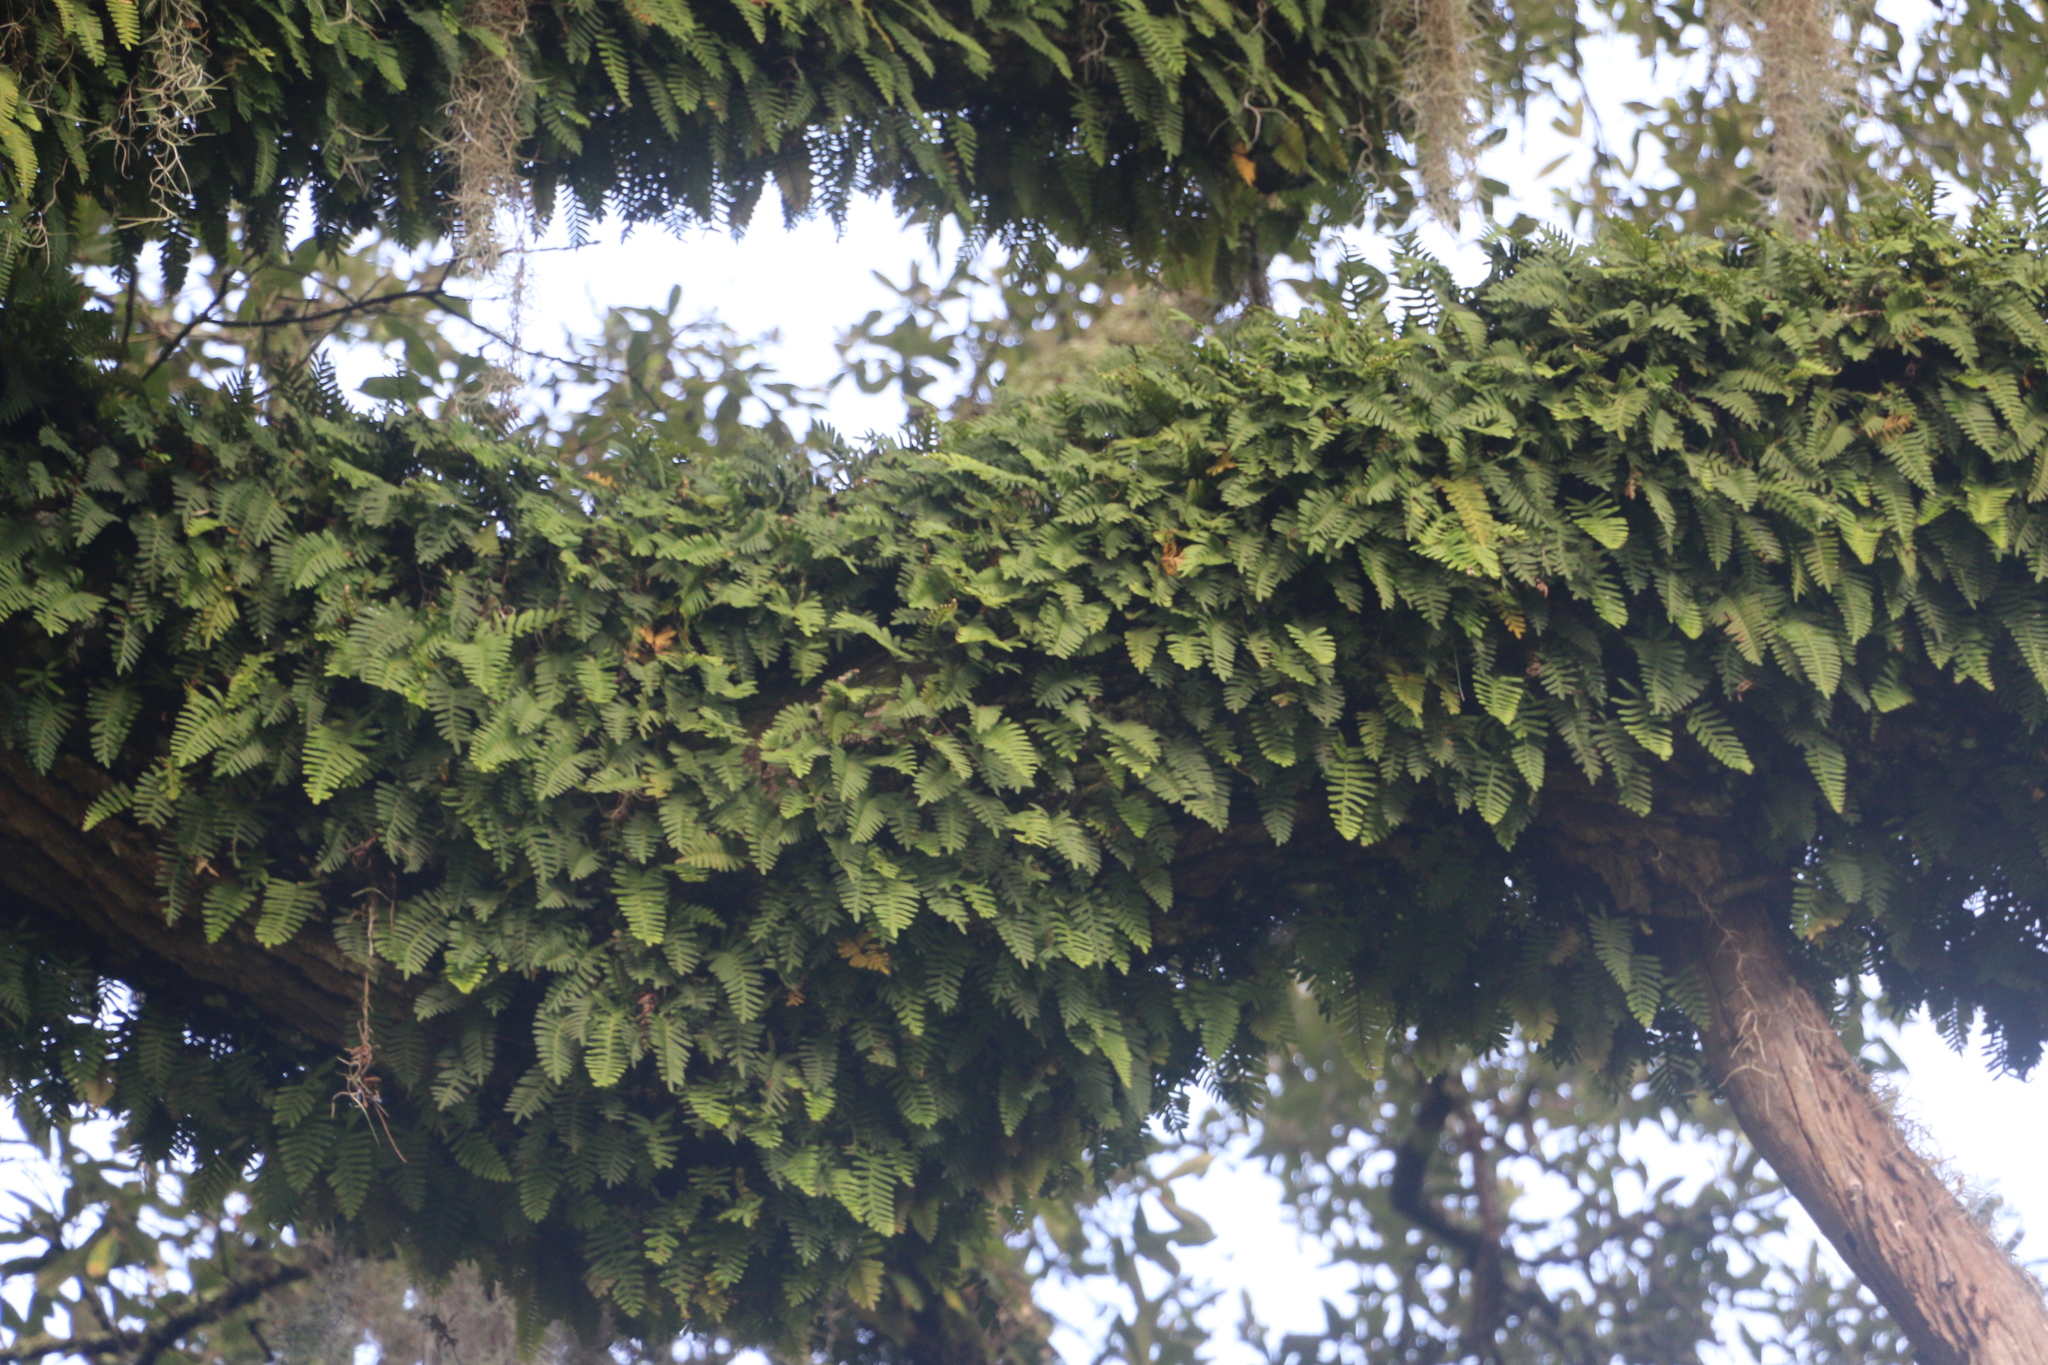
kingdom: Plantae
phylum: Tracheophyta
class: Polypodiopsida
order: Polypodiales
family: Polypodiaceae
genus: Pleopeltis
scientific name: Pleopeltis michauxiana
